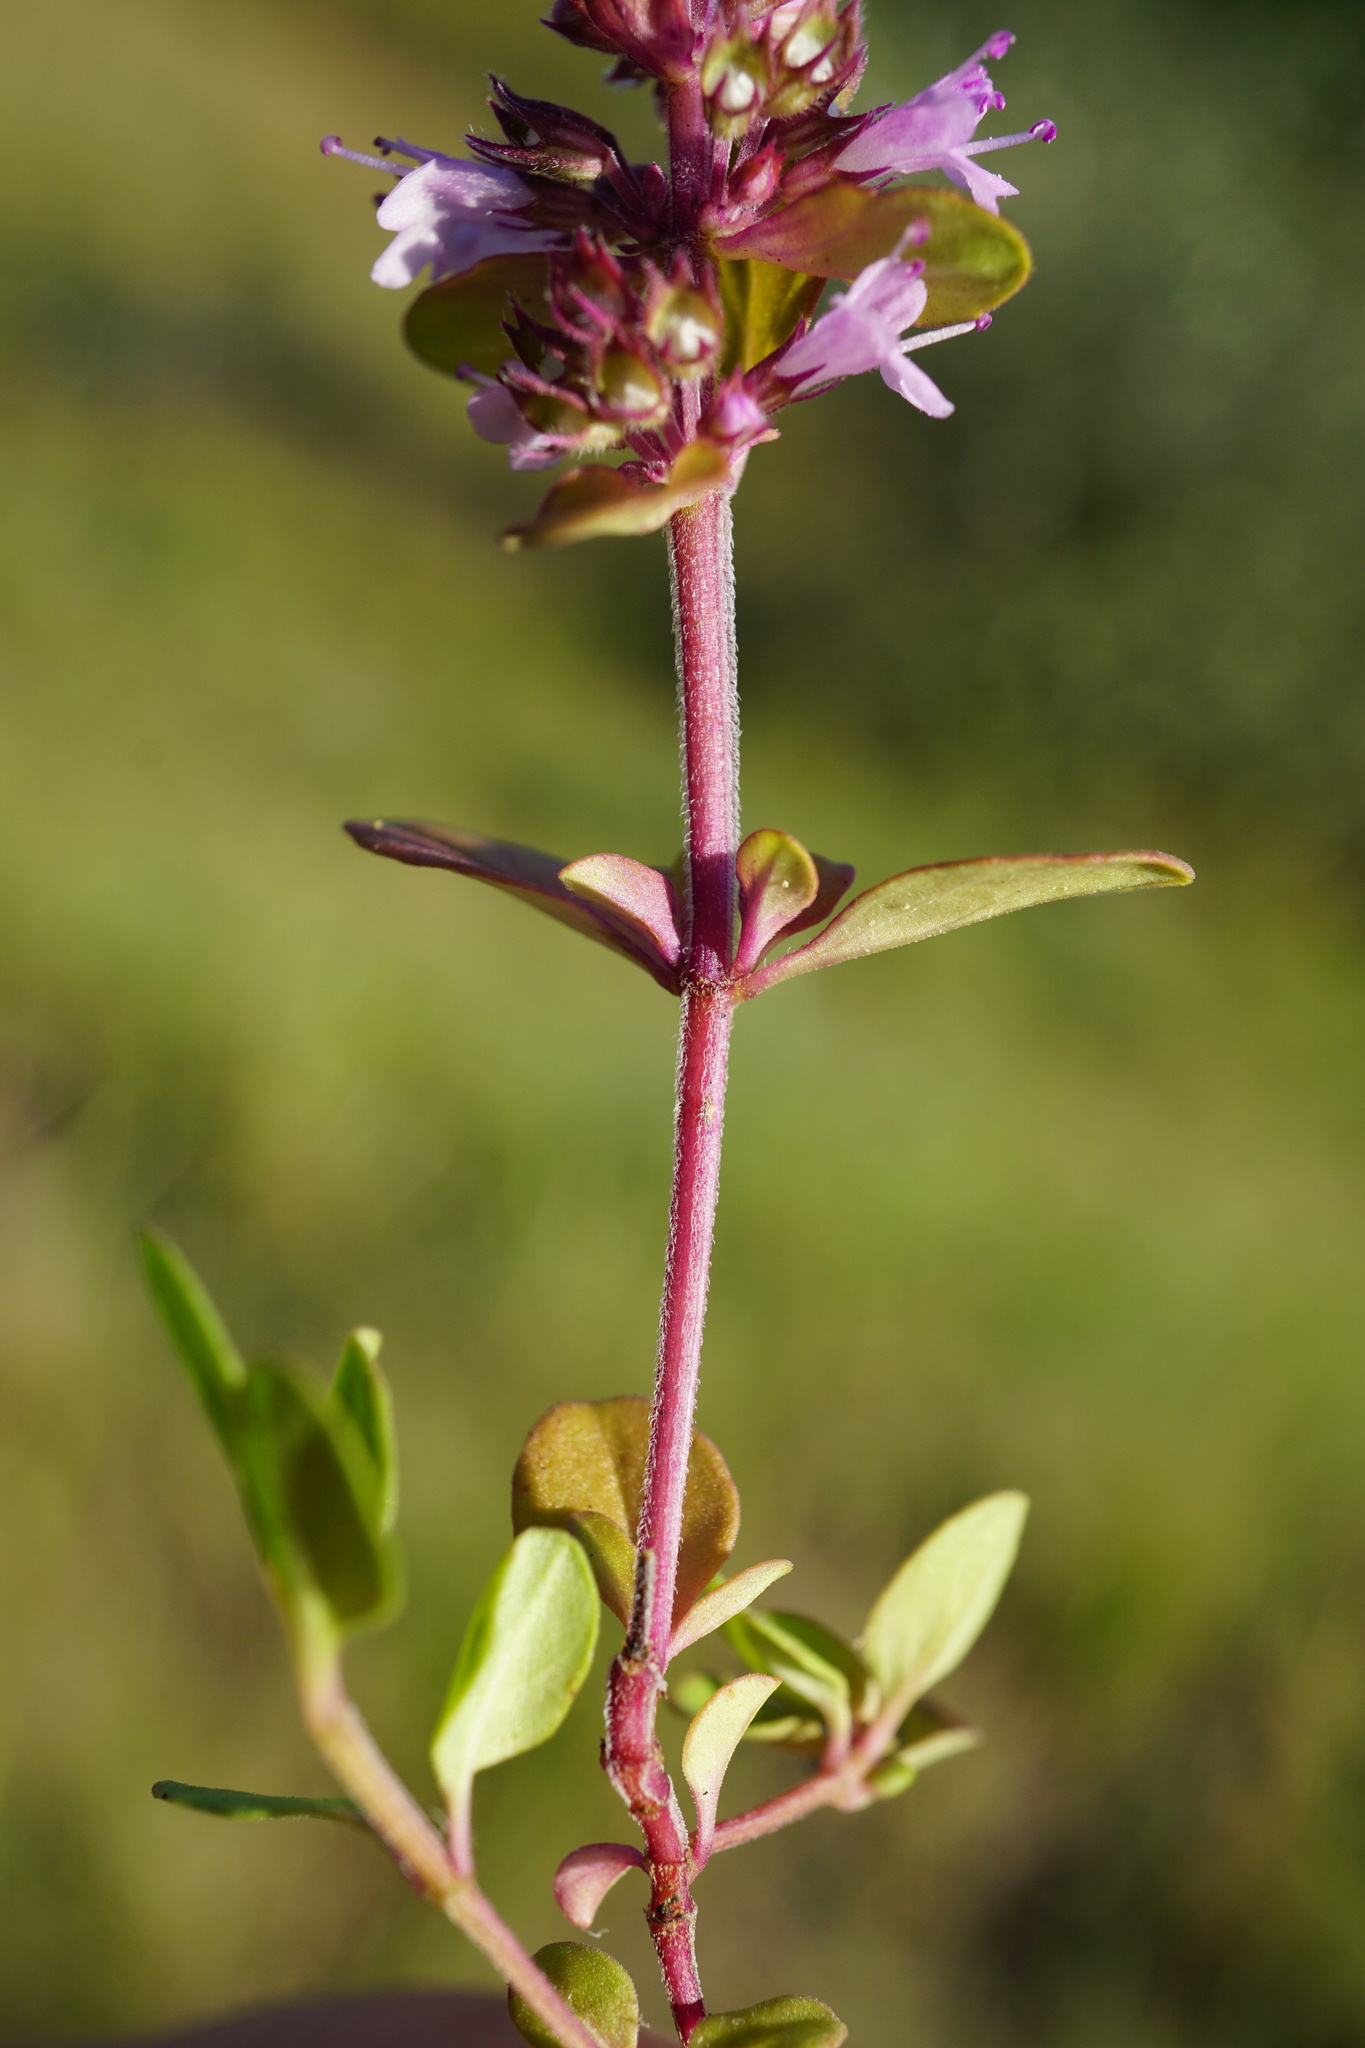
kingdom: Plantae
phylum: Tracheophyta
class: Magnoliopsida
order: Lamiales
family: Lamiaceae
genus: Thymus
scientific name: Thymus pulegioides
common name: Large thyme
